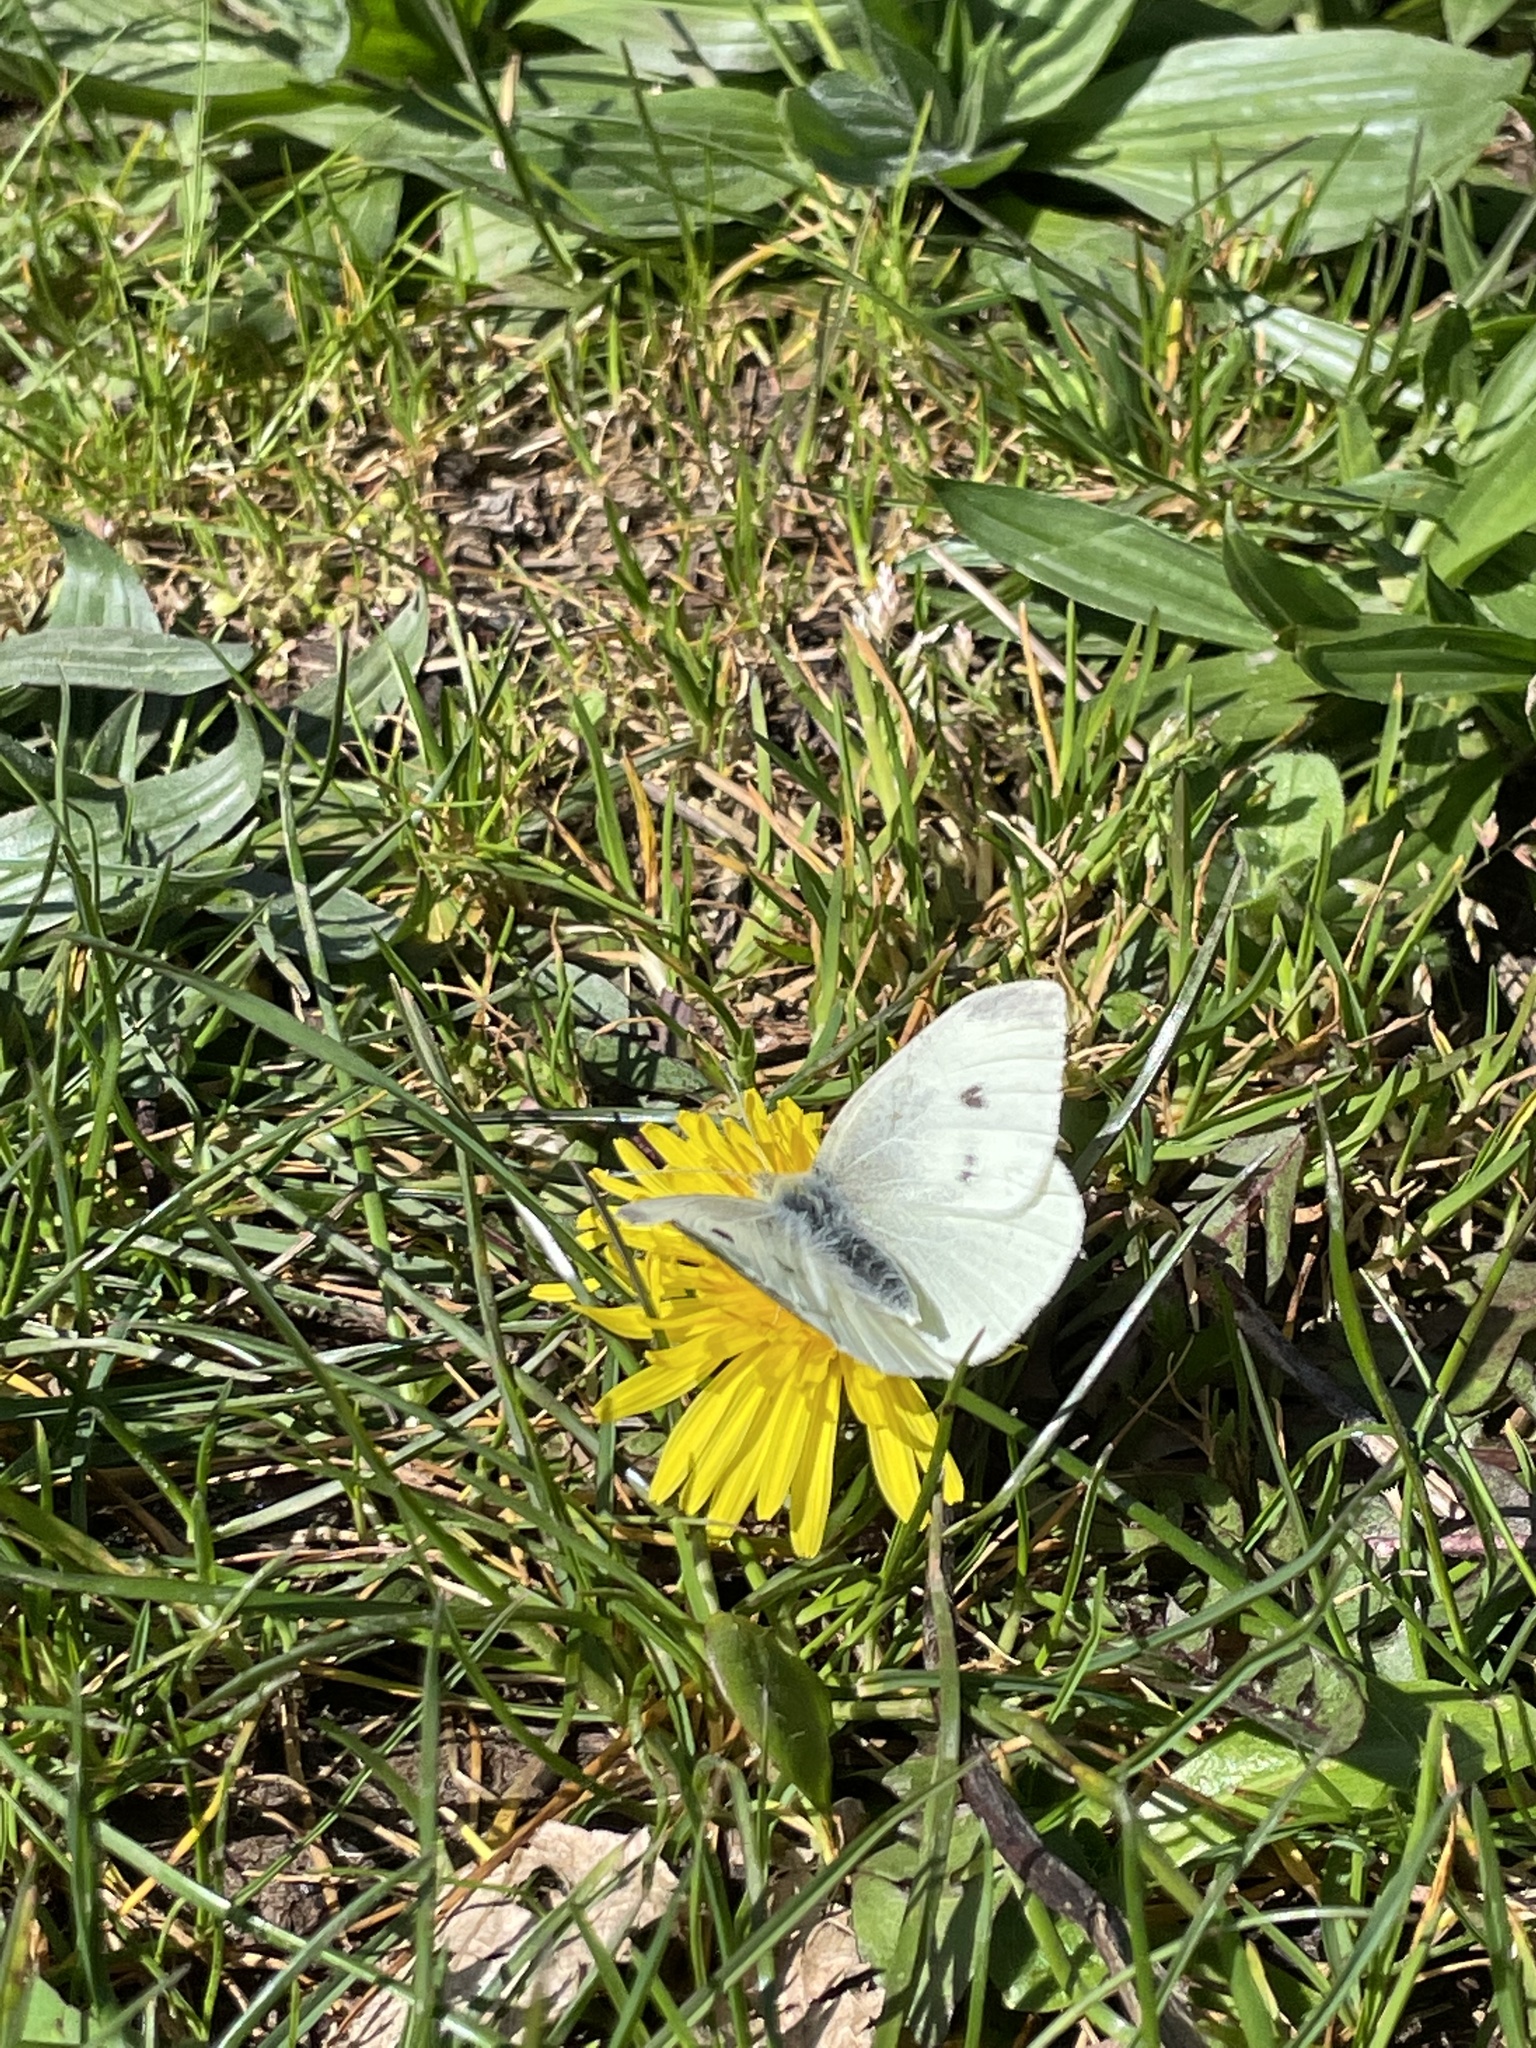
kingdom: Animalia
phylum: Arthropoda
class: Insecta
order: Lepidoptera
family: Pieridae
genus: Pieris
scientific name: Pieris rapae
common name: Small white
